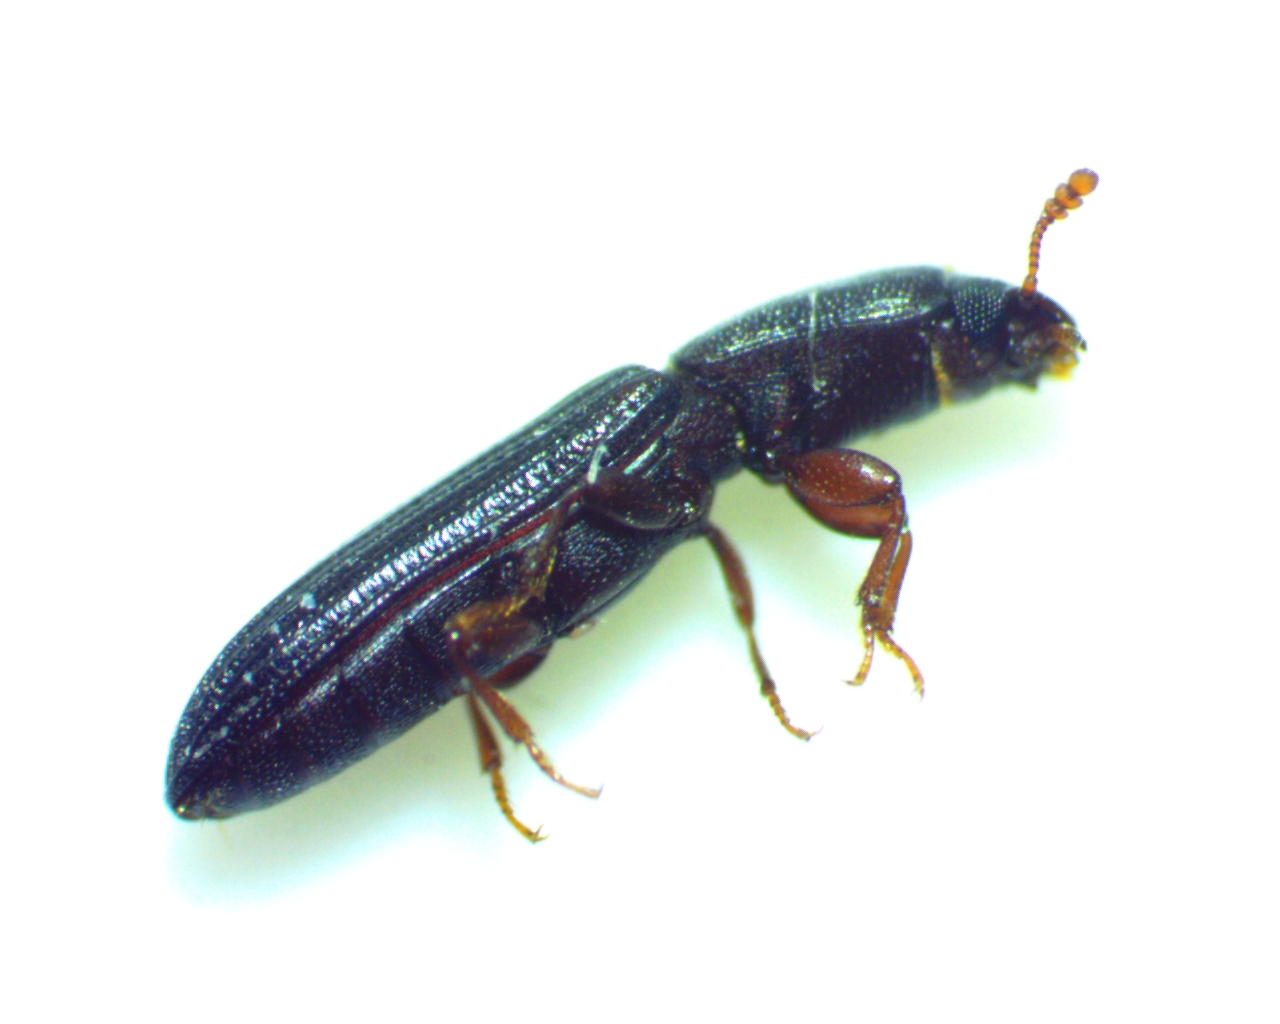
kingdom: Animalia
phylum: Arthropoda
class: Insecta
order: Coleoptera
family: Zopheridae
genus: Colydium
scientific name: Colydium lineola
